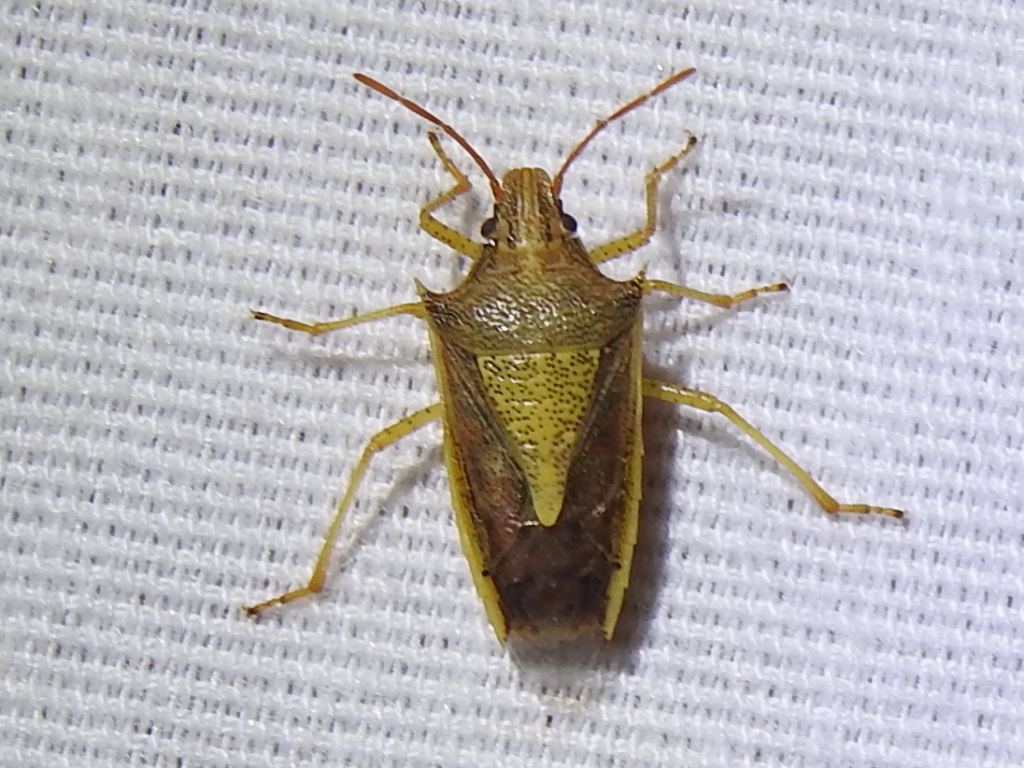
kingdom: Animalia
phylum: Arthropoda
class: Insecta
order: Hemiptera
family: Pentatomidae
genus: Oebalus
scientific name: Oebalus pugnax
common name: Rice stink bug
